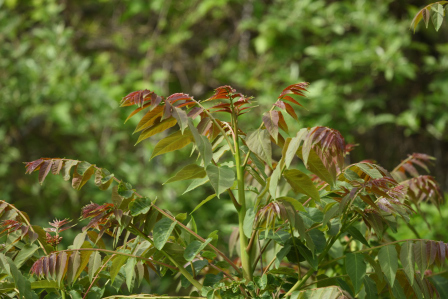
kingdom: Plantae
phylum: Tracheophyta
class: Magnoliopsida
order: Sapindales
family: Simaroubaceae
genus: Ailanthus
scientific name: Ailanthus altissima
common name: Tree-of-heaven
